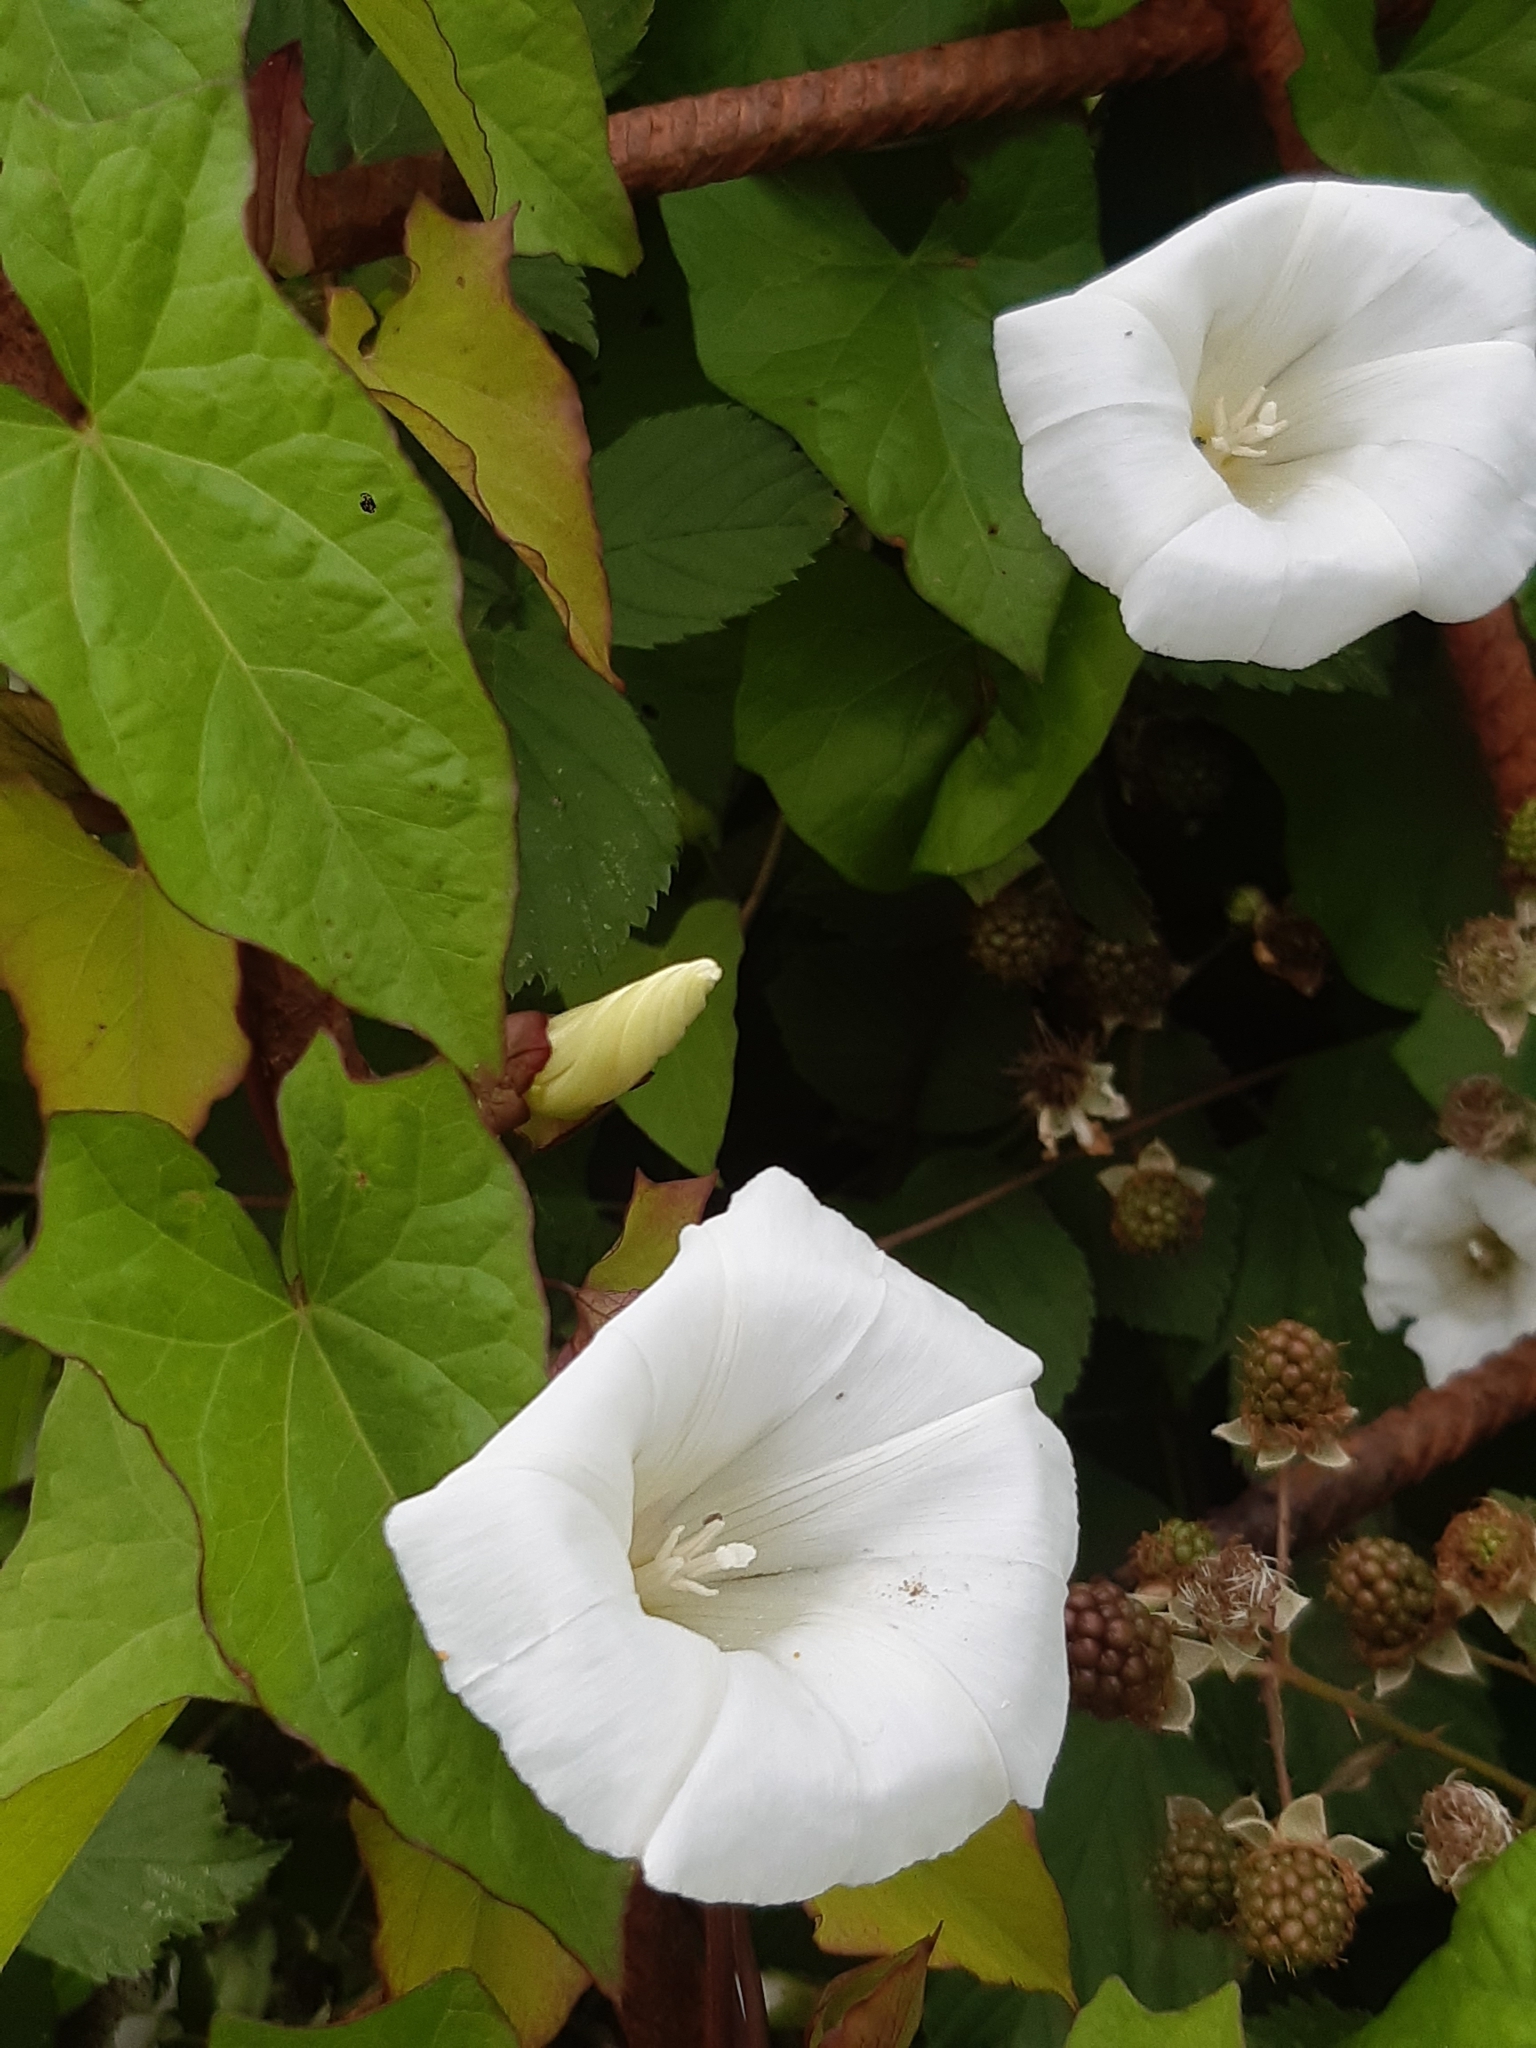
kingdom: Plantae
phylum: Tracheophyta
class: Magnoliopsida
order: Solanales
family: Convolvulaceae
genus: Calystegia
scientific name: Calystegia sepium
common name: Hedge bindweed
